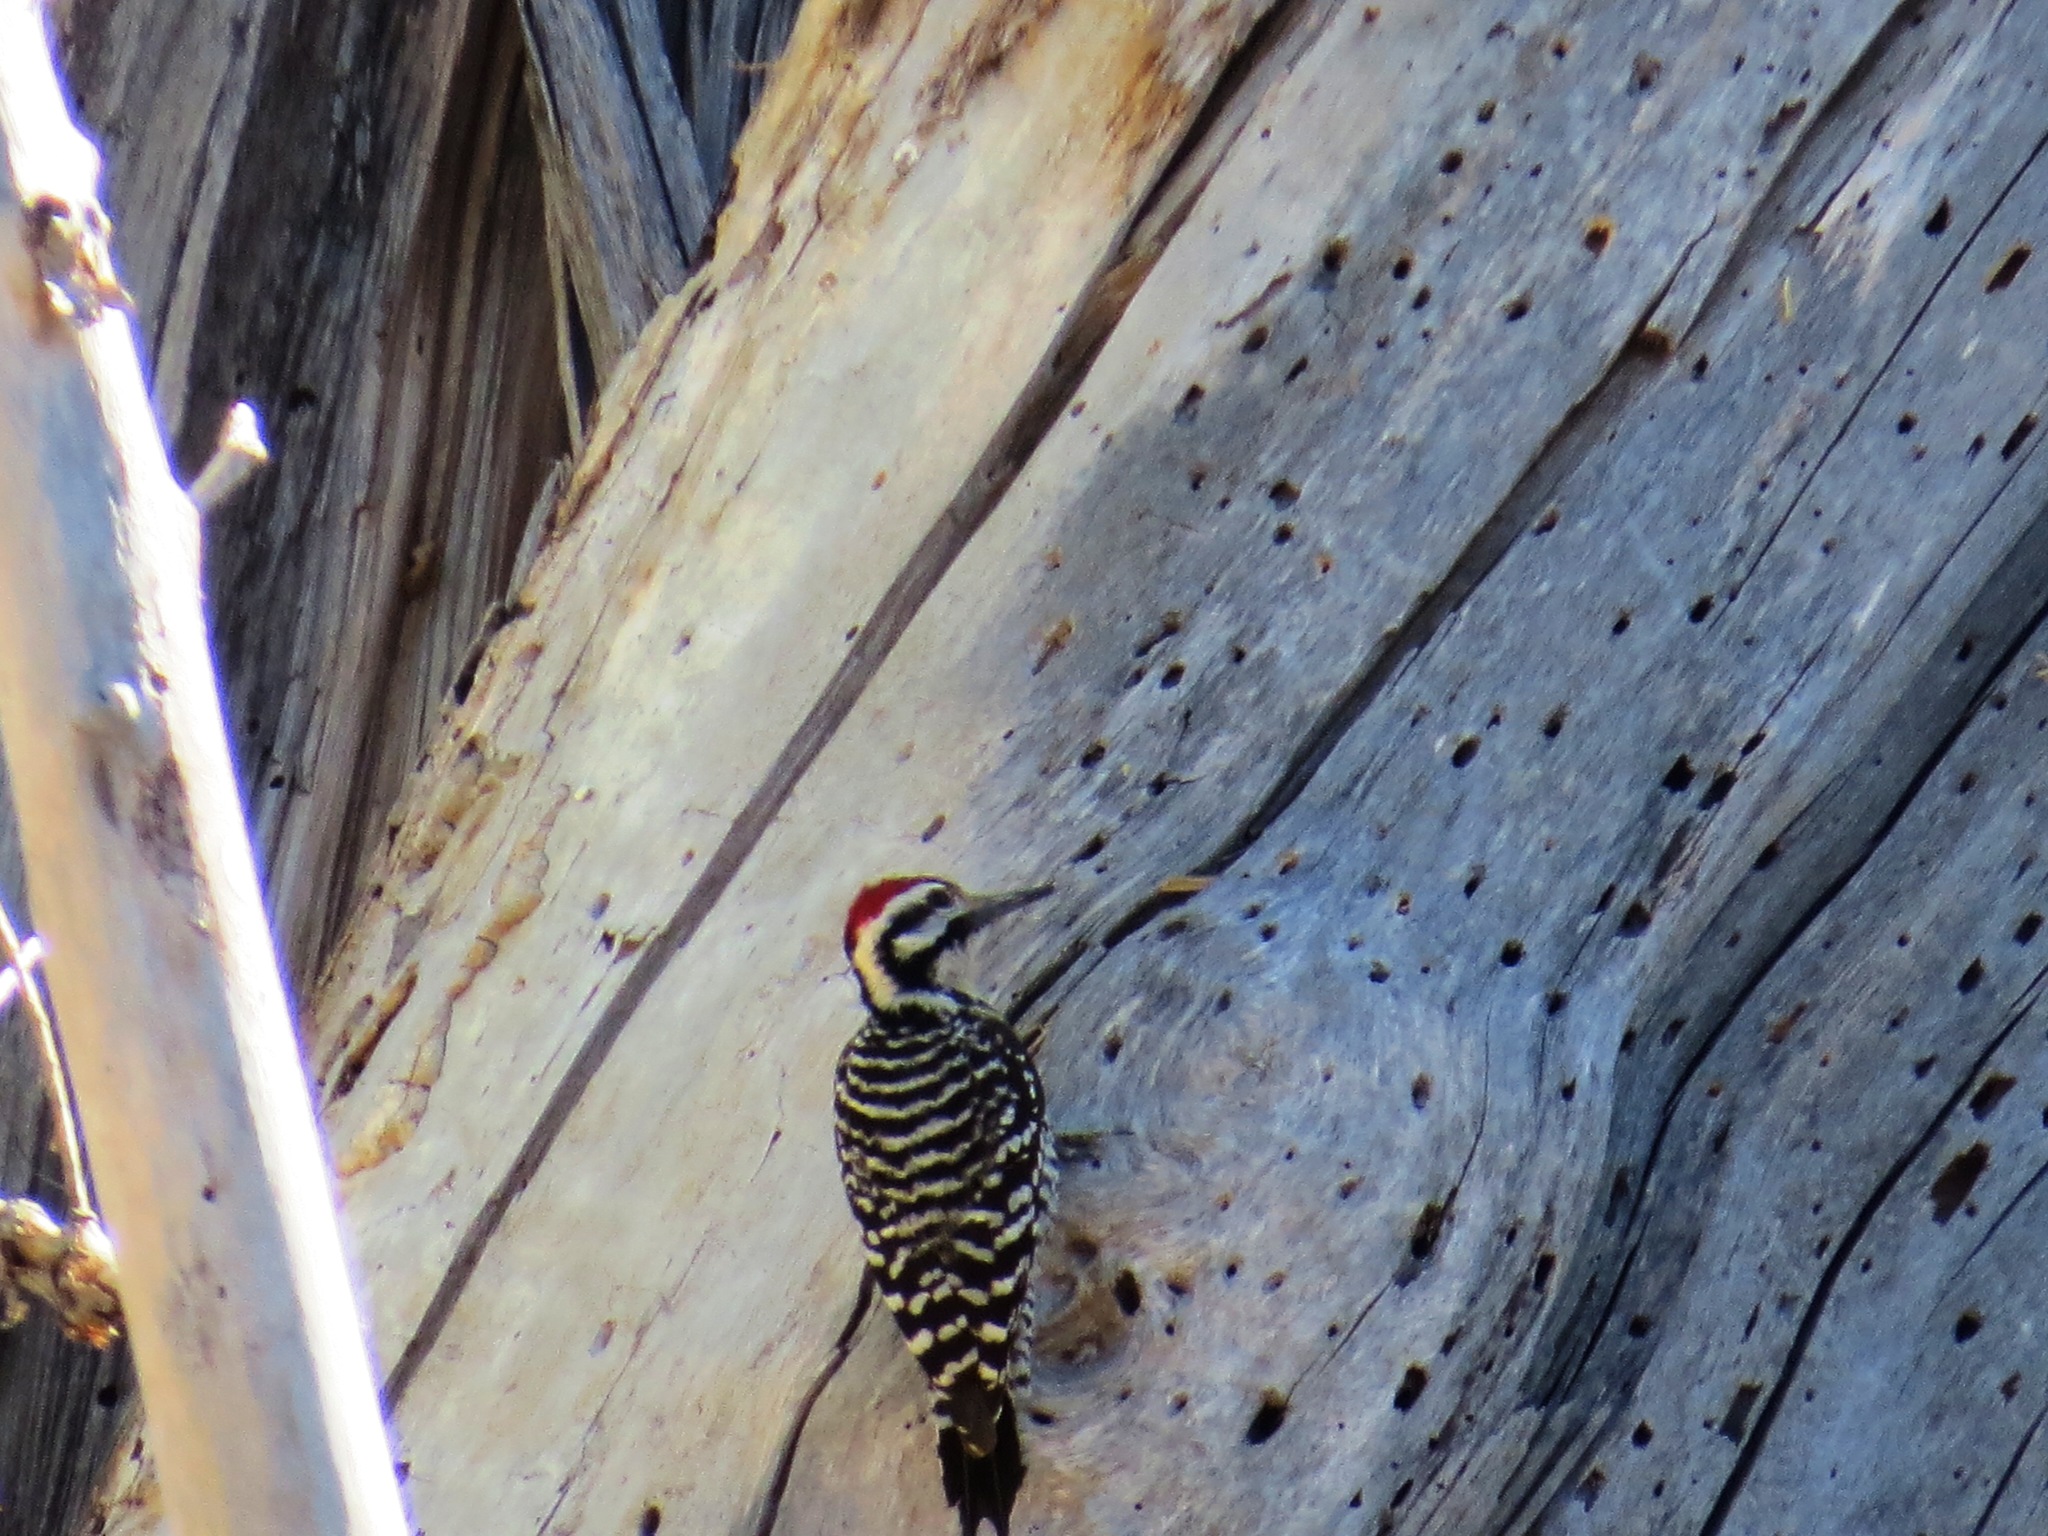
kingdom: Animalia
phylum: Chordata
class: Aves
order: Piciformes
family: Picidae
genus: Dryobates
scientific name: Dryobates scalaris
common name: Ladder-backed woodpecker
